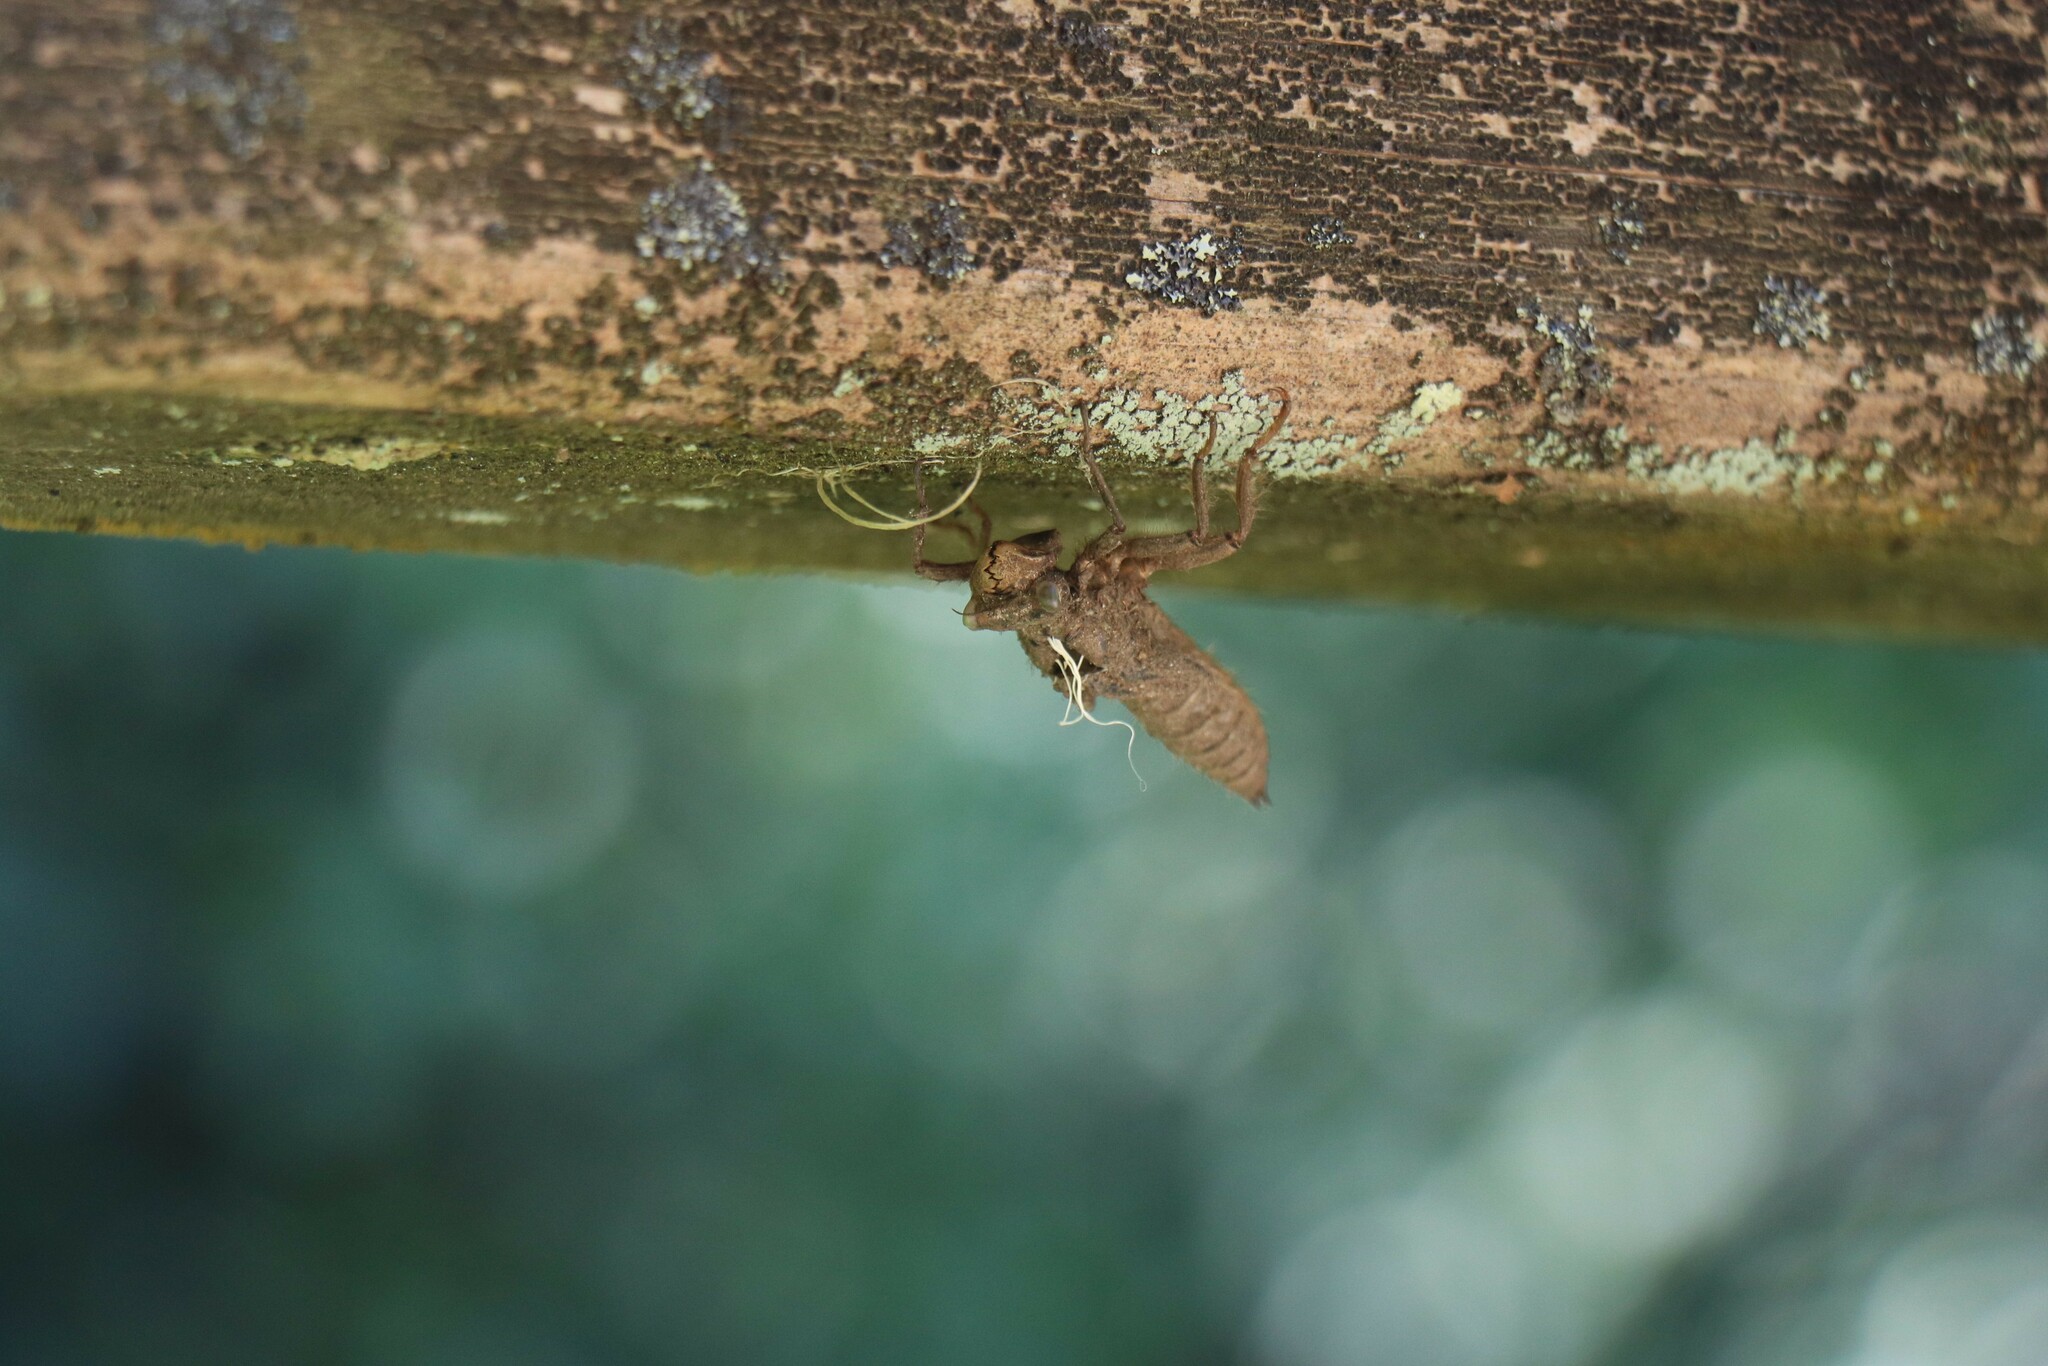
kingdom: Animalia
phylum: Arthropoda
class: Insecta
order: Odonata
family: Cordulegastridae
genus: Cordulegaster
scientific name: Cordulegaster boltonii
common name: Golden-ringed dragonfly
